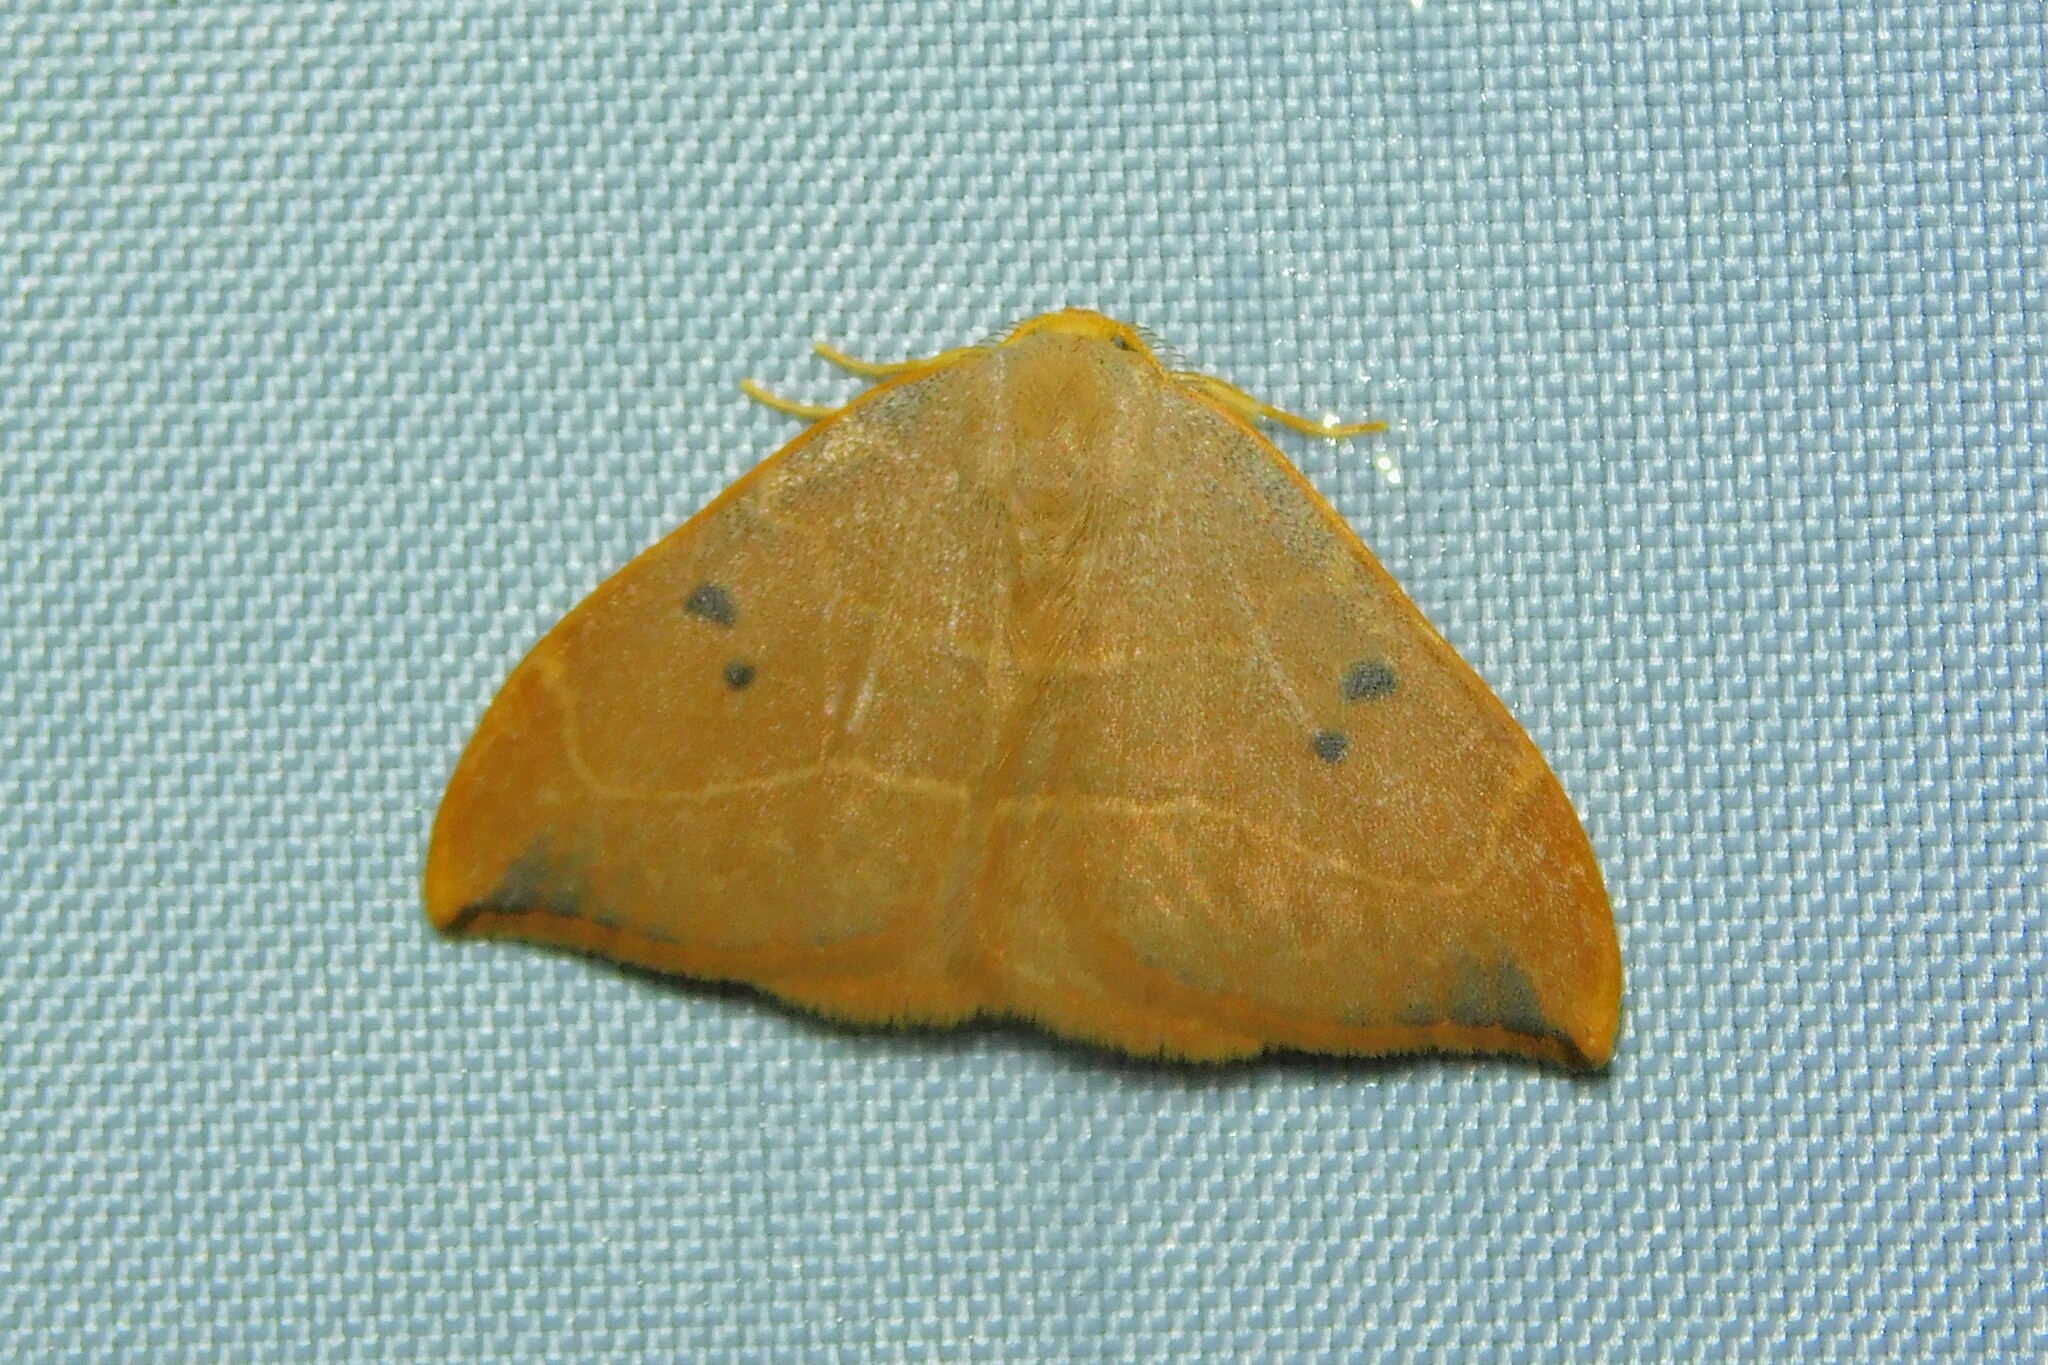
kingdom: Animalia
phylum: Arthropoda
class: Insecta
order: Lepidoptera
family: Drepanidae
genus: Watsonalla
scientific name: Watsonalla binaria
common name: Oak hook-tip
